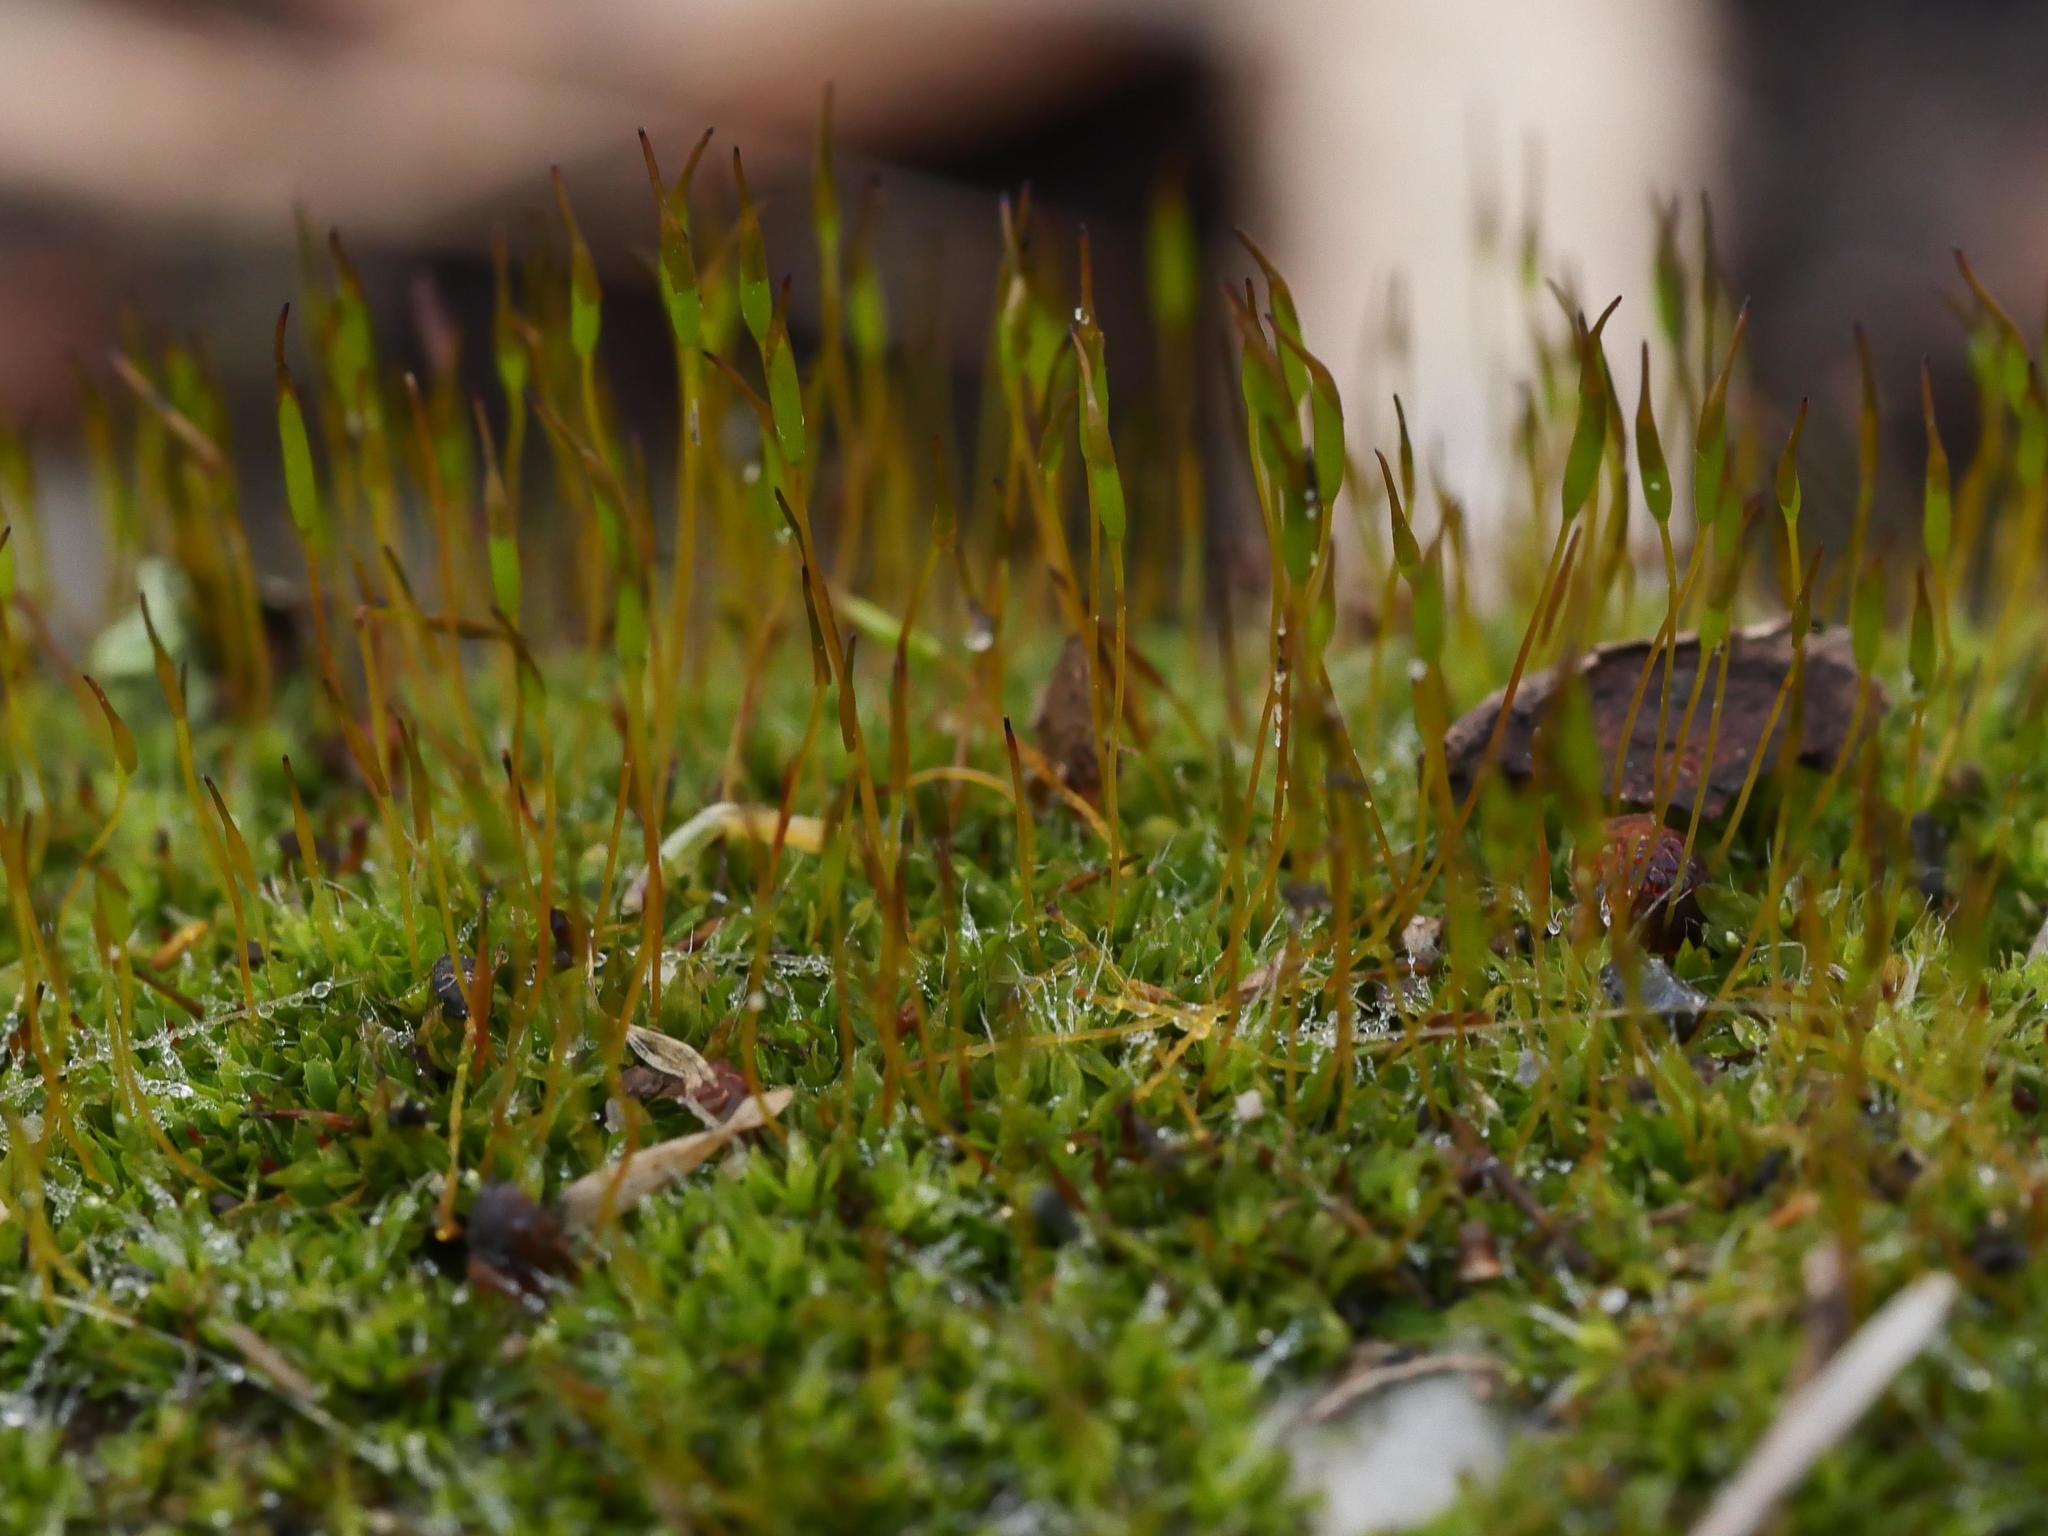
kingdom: Plantae
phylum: Bryophyta
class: Bryopsida
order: Pottiales
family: Pottiaceae
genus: Tortula
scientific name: Tortula muralis
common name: Wall screw-moss
